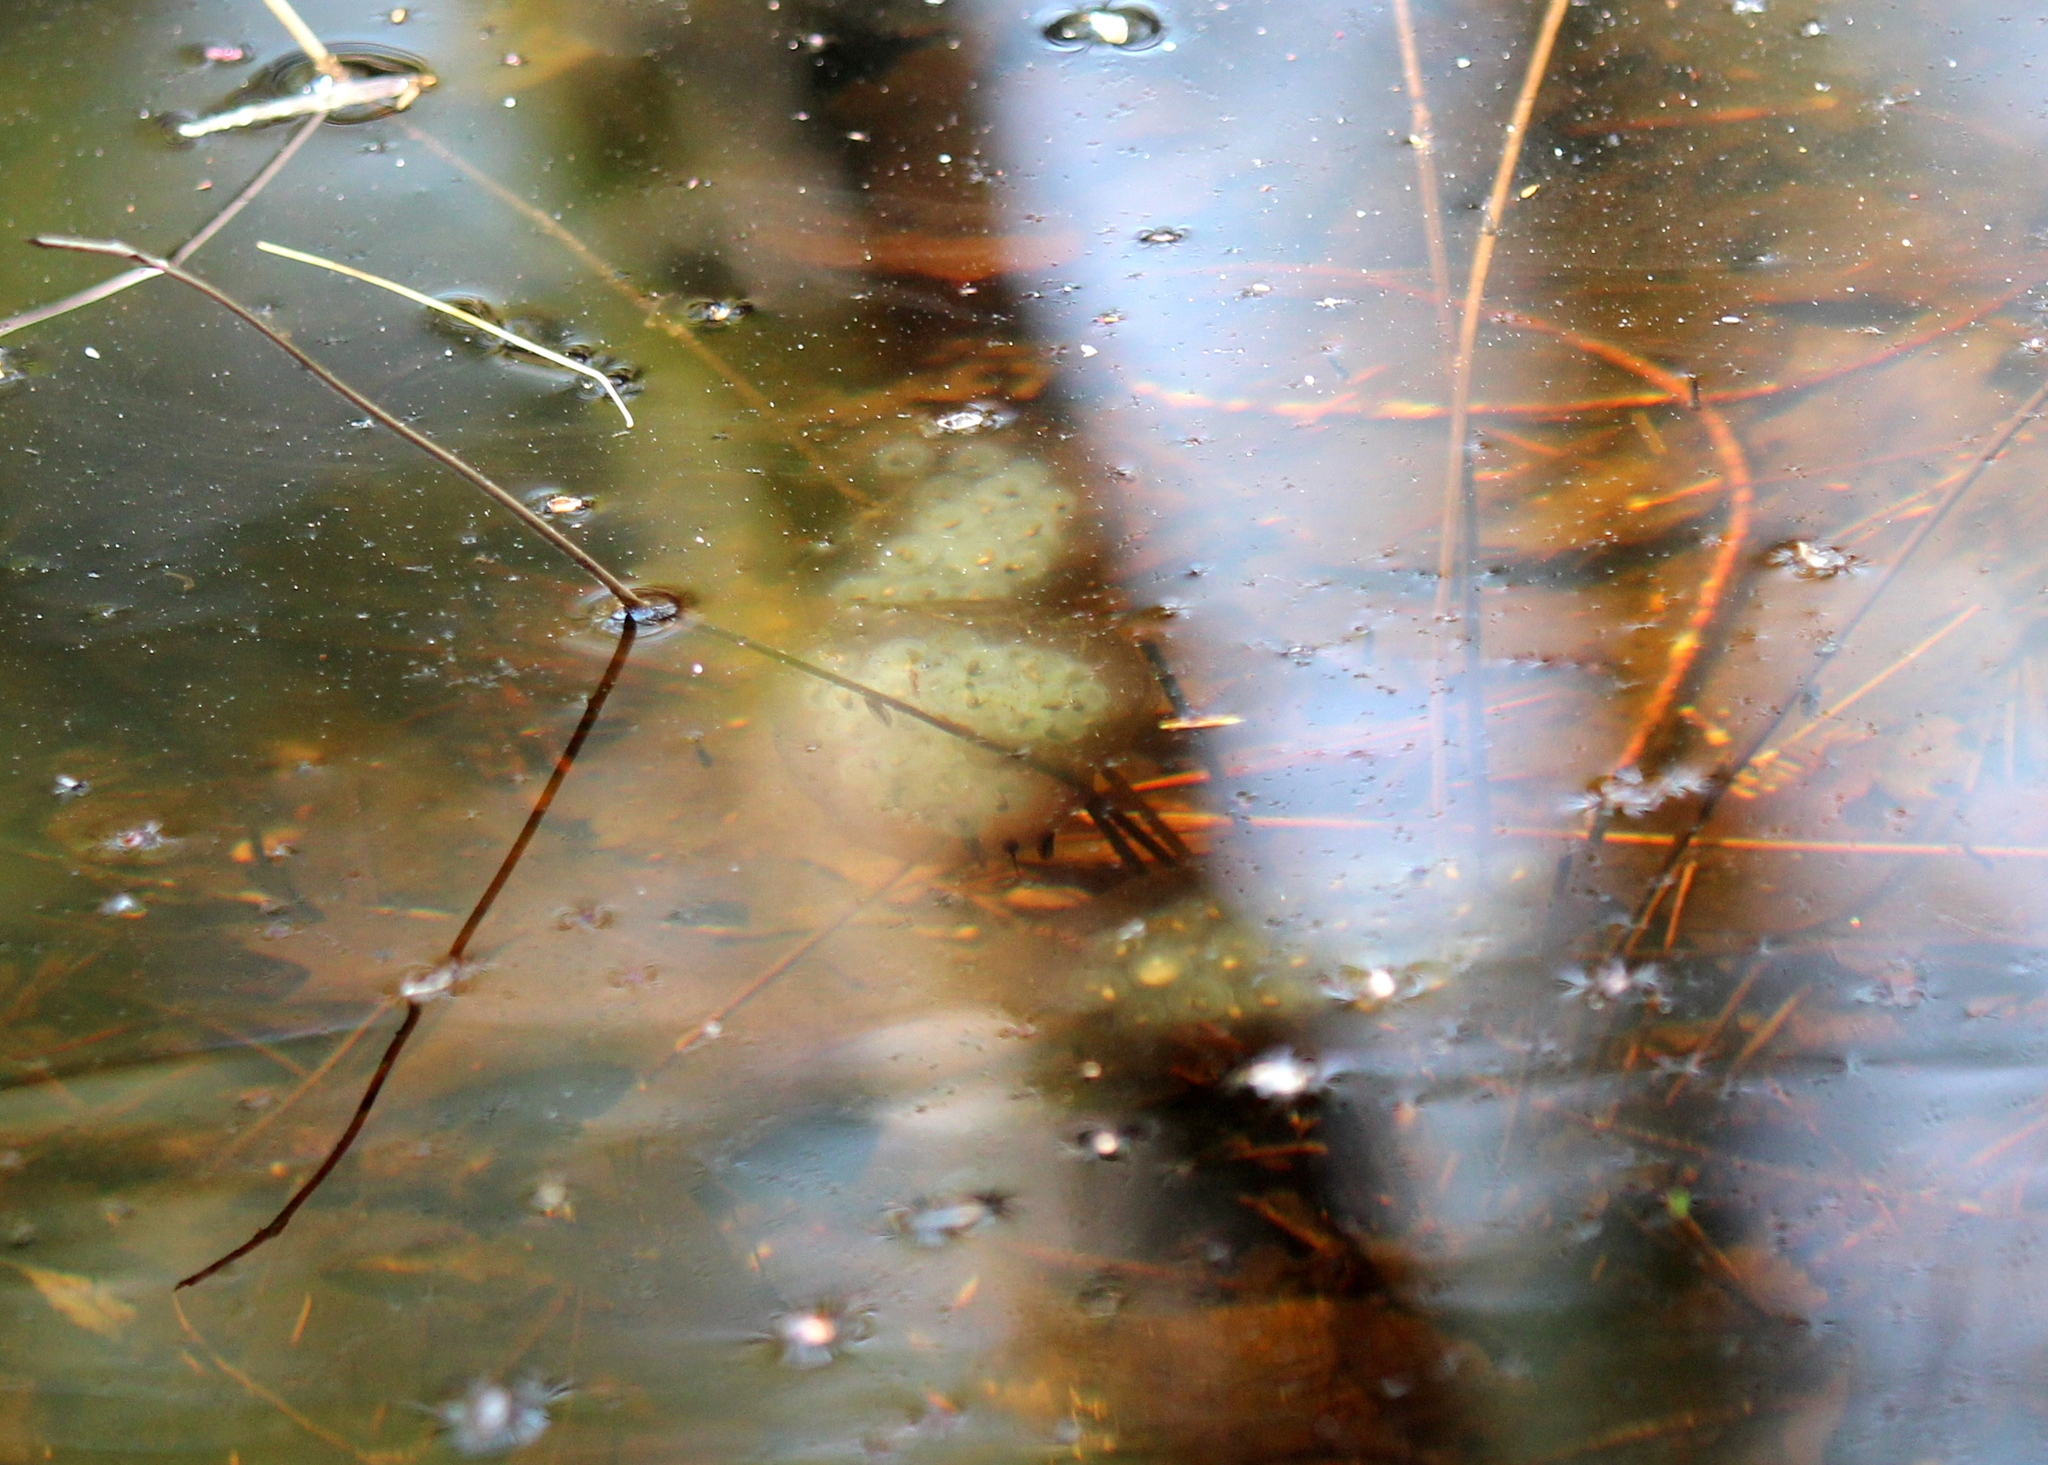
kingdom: Animalia
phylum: Chordata
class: Amphibia
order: Caudata
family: Ambystomatidae
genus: Ambystoma
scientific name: Ambystoma maculatum
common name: Spotted salamander
